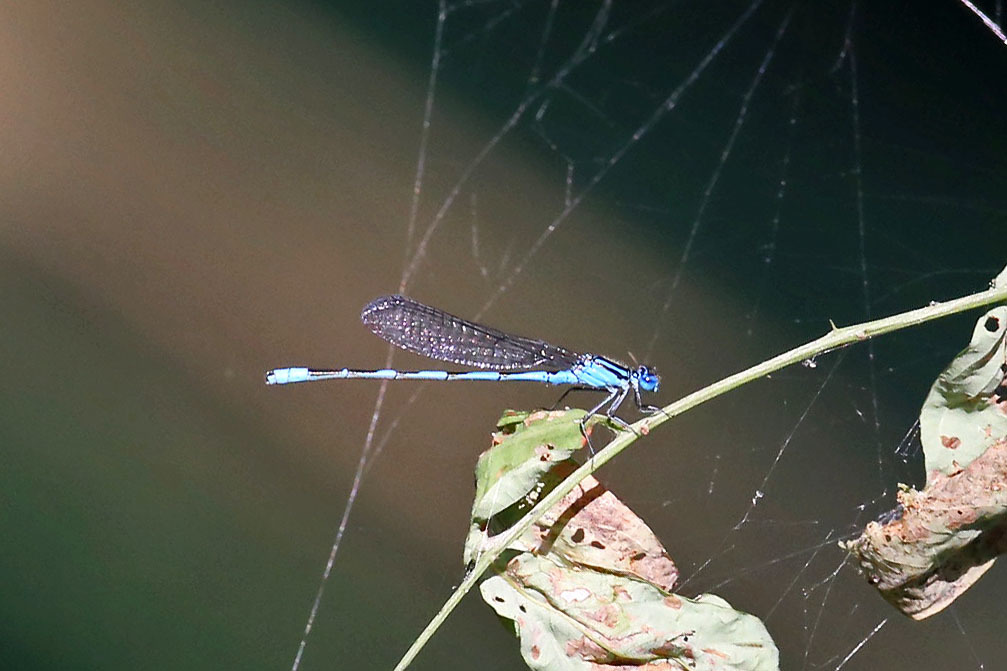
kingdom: Animalia
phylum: Arthropoda
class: Insecta
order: Odonata
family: Coenagrionidae
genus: Enallagma
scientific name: Enallagma durum
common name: Big bluet
